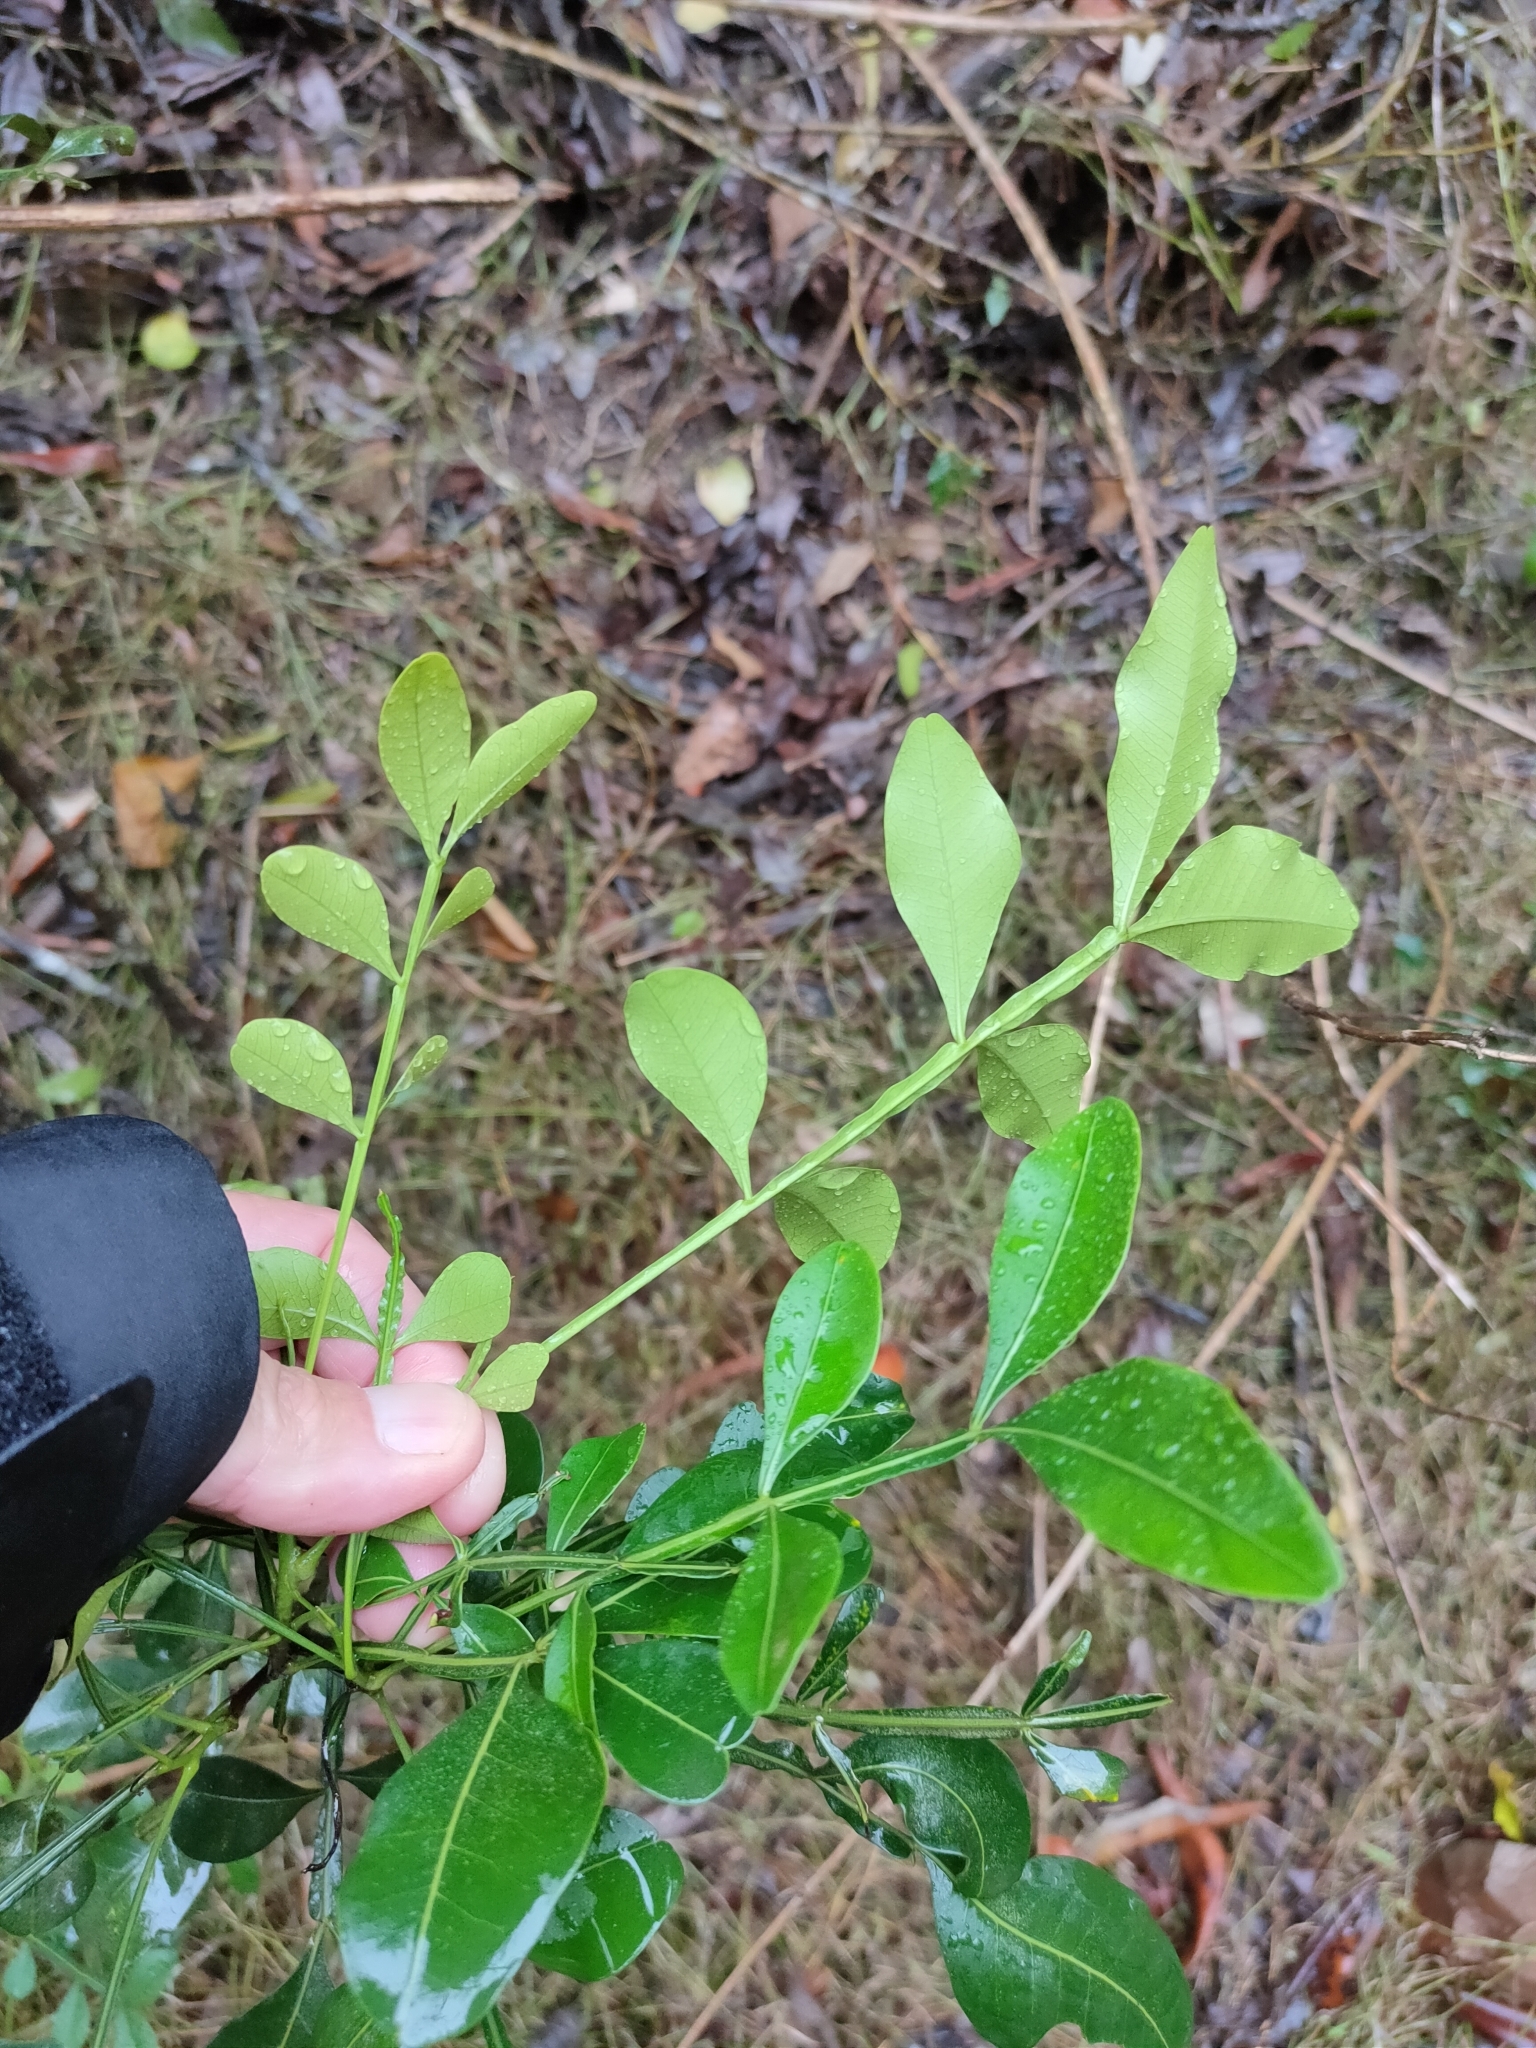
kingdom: Plantae
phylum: Tracheophyta
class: Magnoliopsida
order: Sapindales
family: Meliaceae
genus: Owenia
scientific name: Owenia venosa
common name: Crow's-apple
